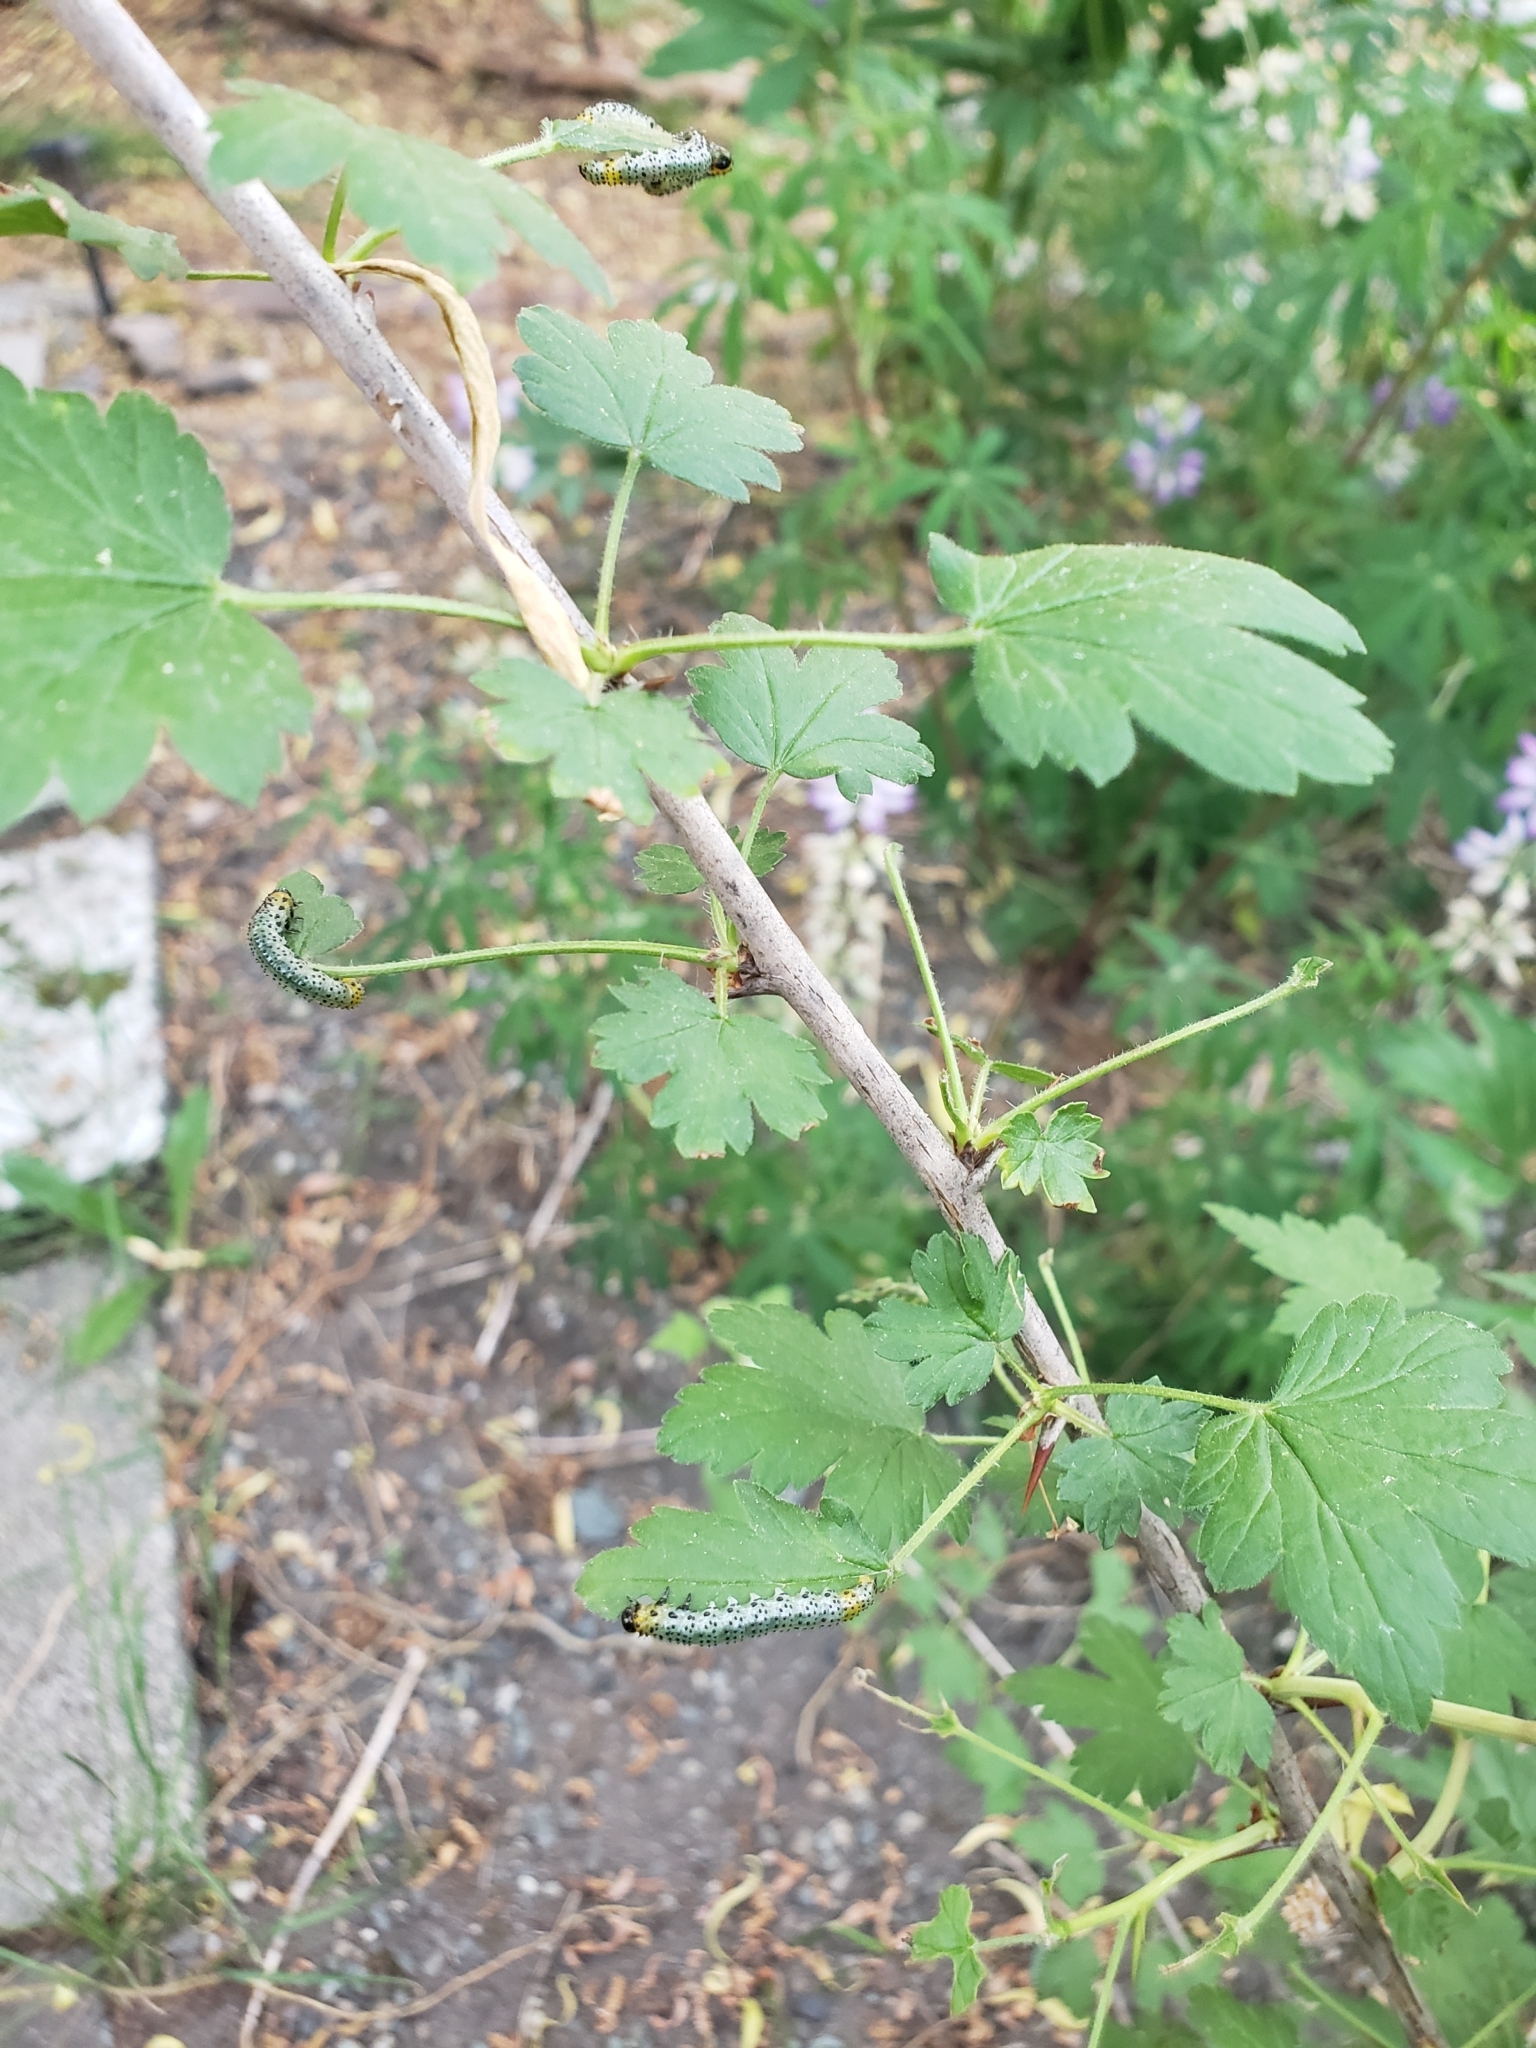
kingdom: Animalia
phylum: Arthropoda
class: Insecta
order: Hymenoptera
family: Tenthredinidae
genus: Nematus
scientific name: Nematus ribesii
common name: Imported currantworm
